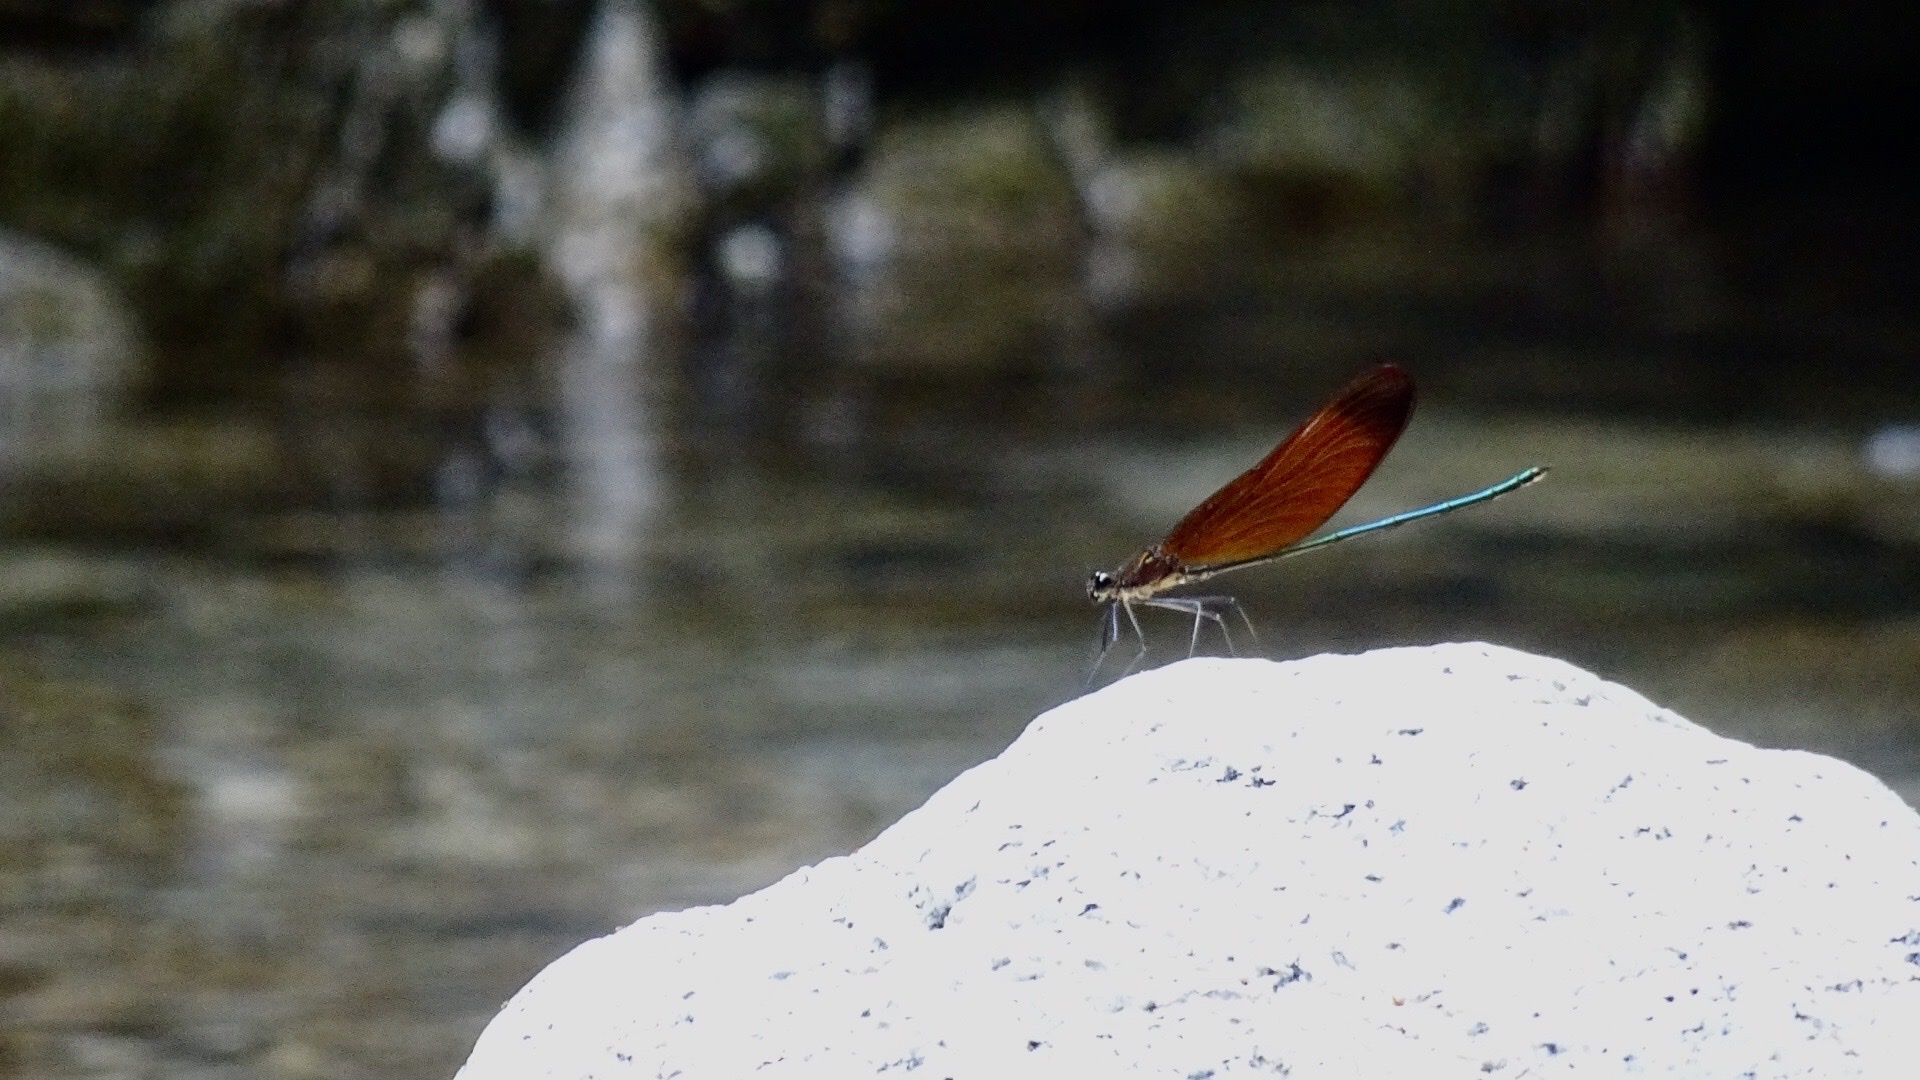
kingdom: Animalia
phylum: Arthropoda
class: Insecta
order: Odonata
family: Calopterygidae
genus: Calopteryx
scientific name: Calopteryx cornelia
